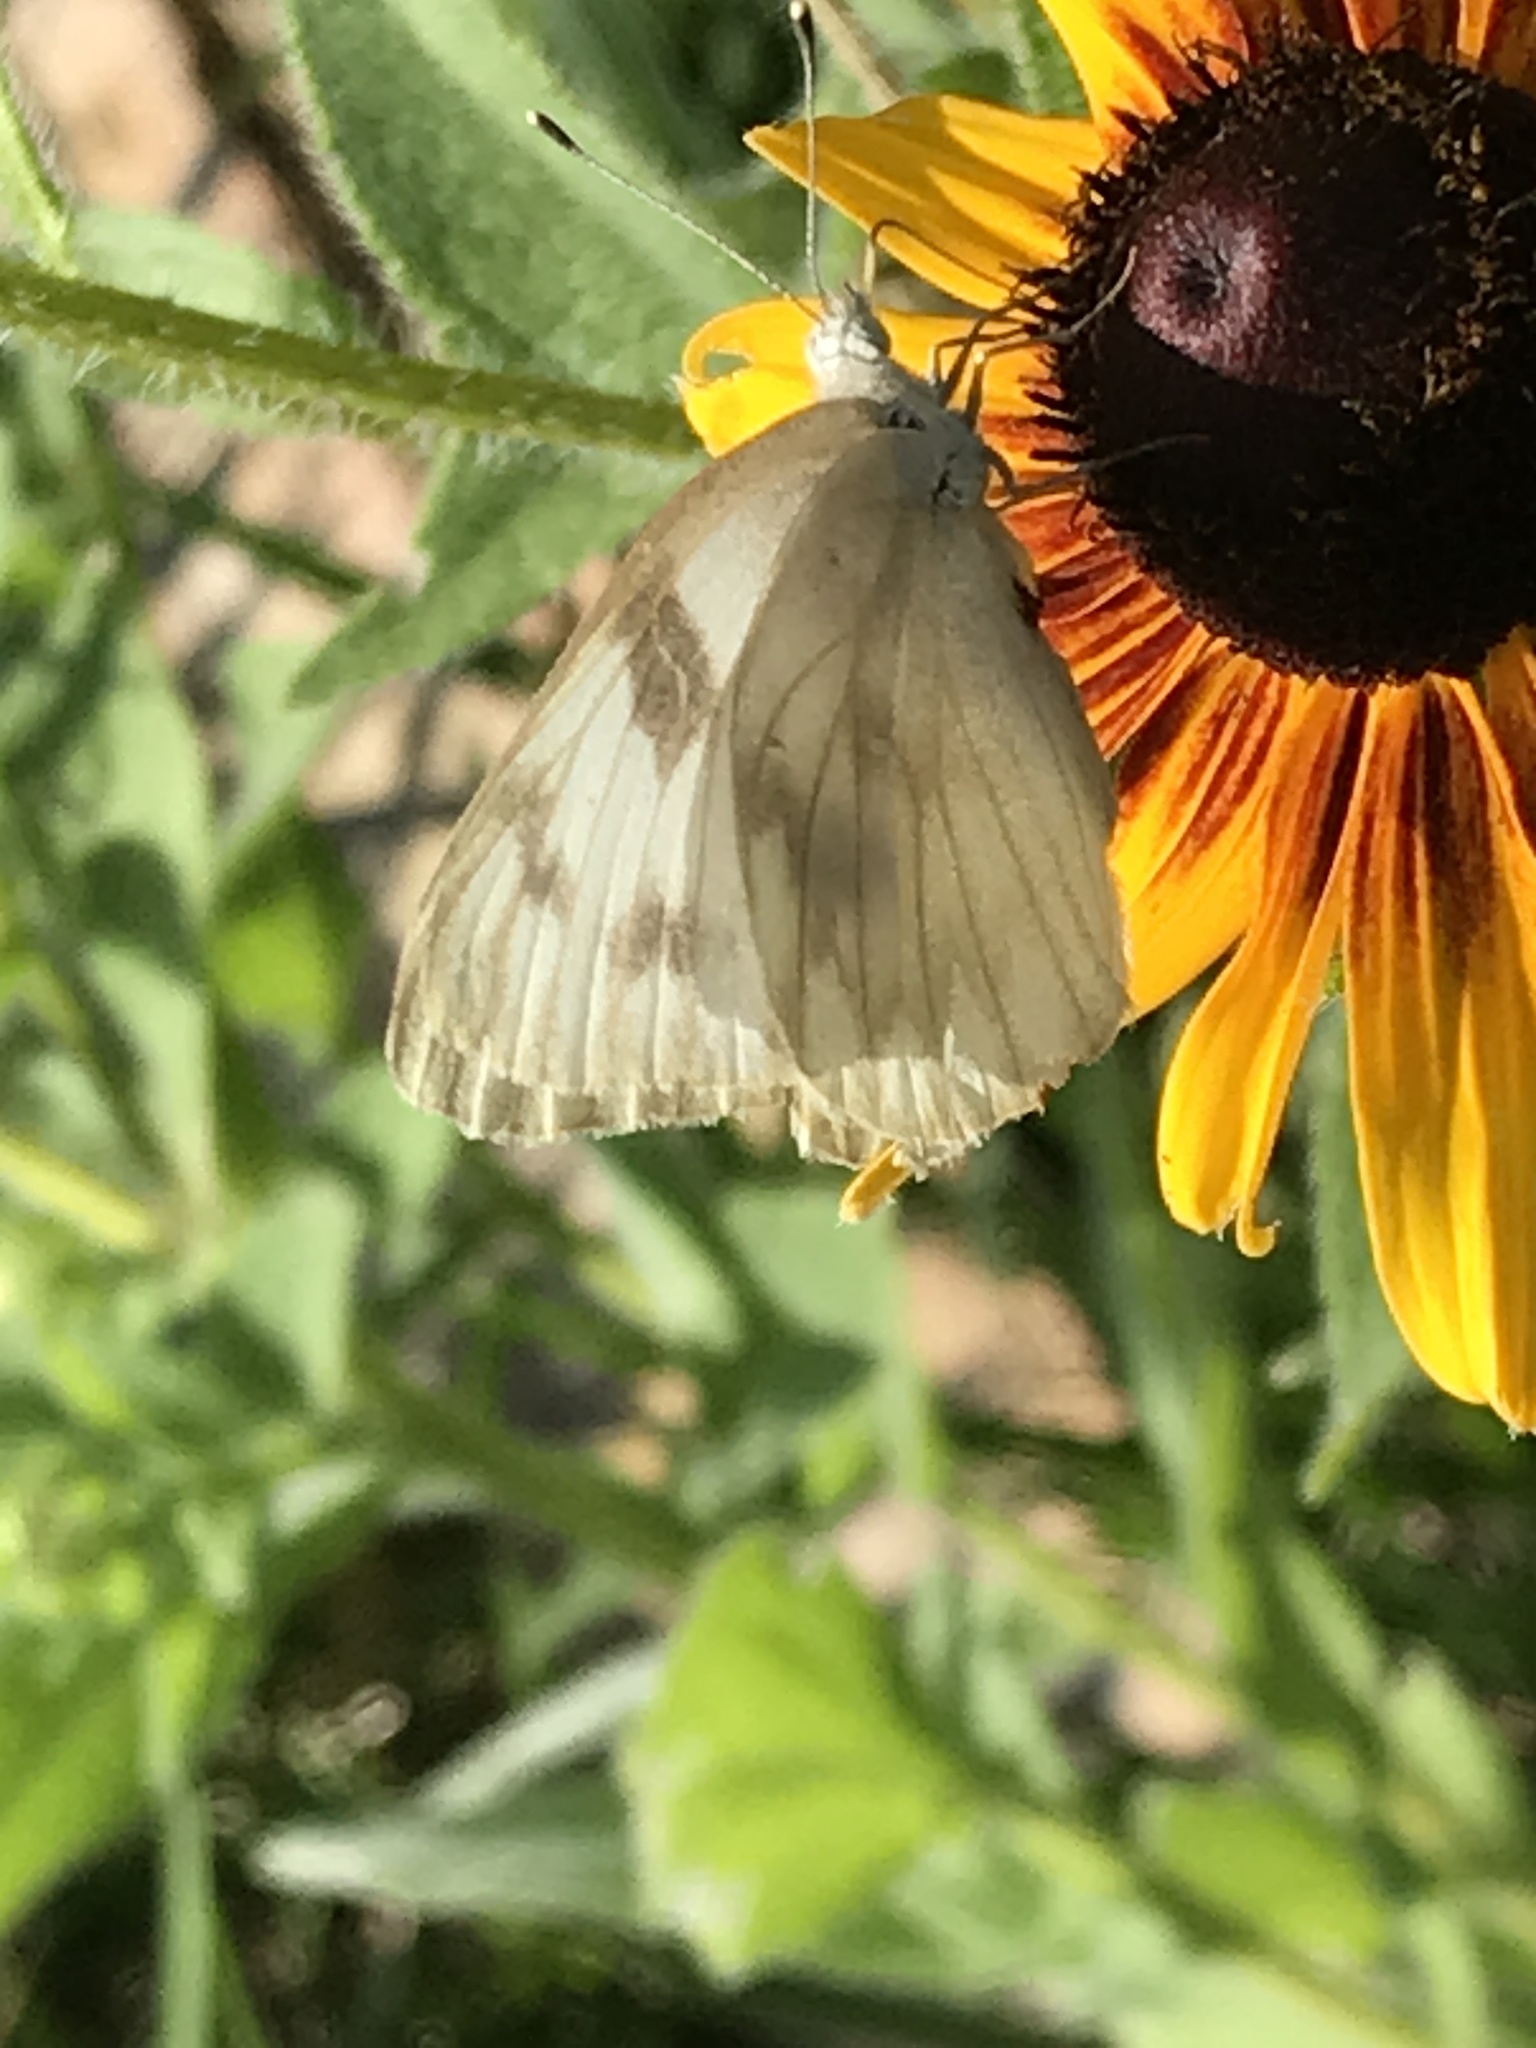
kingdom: Animalia
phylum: Arthropoda
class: Insecta
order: Lepidoptera
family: Pieridae
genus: Pontia
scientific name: Pontia protodice
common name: Checkered white
